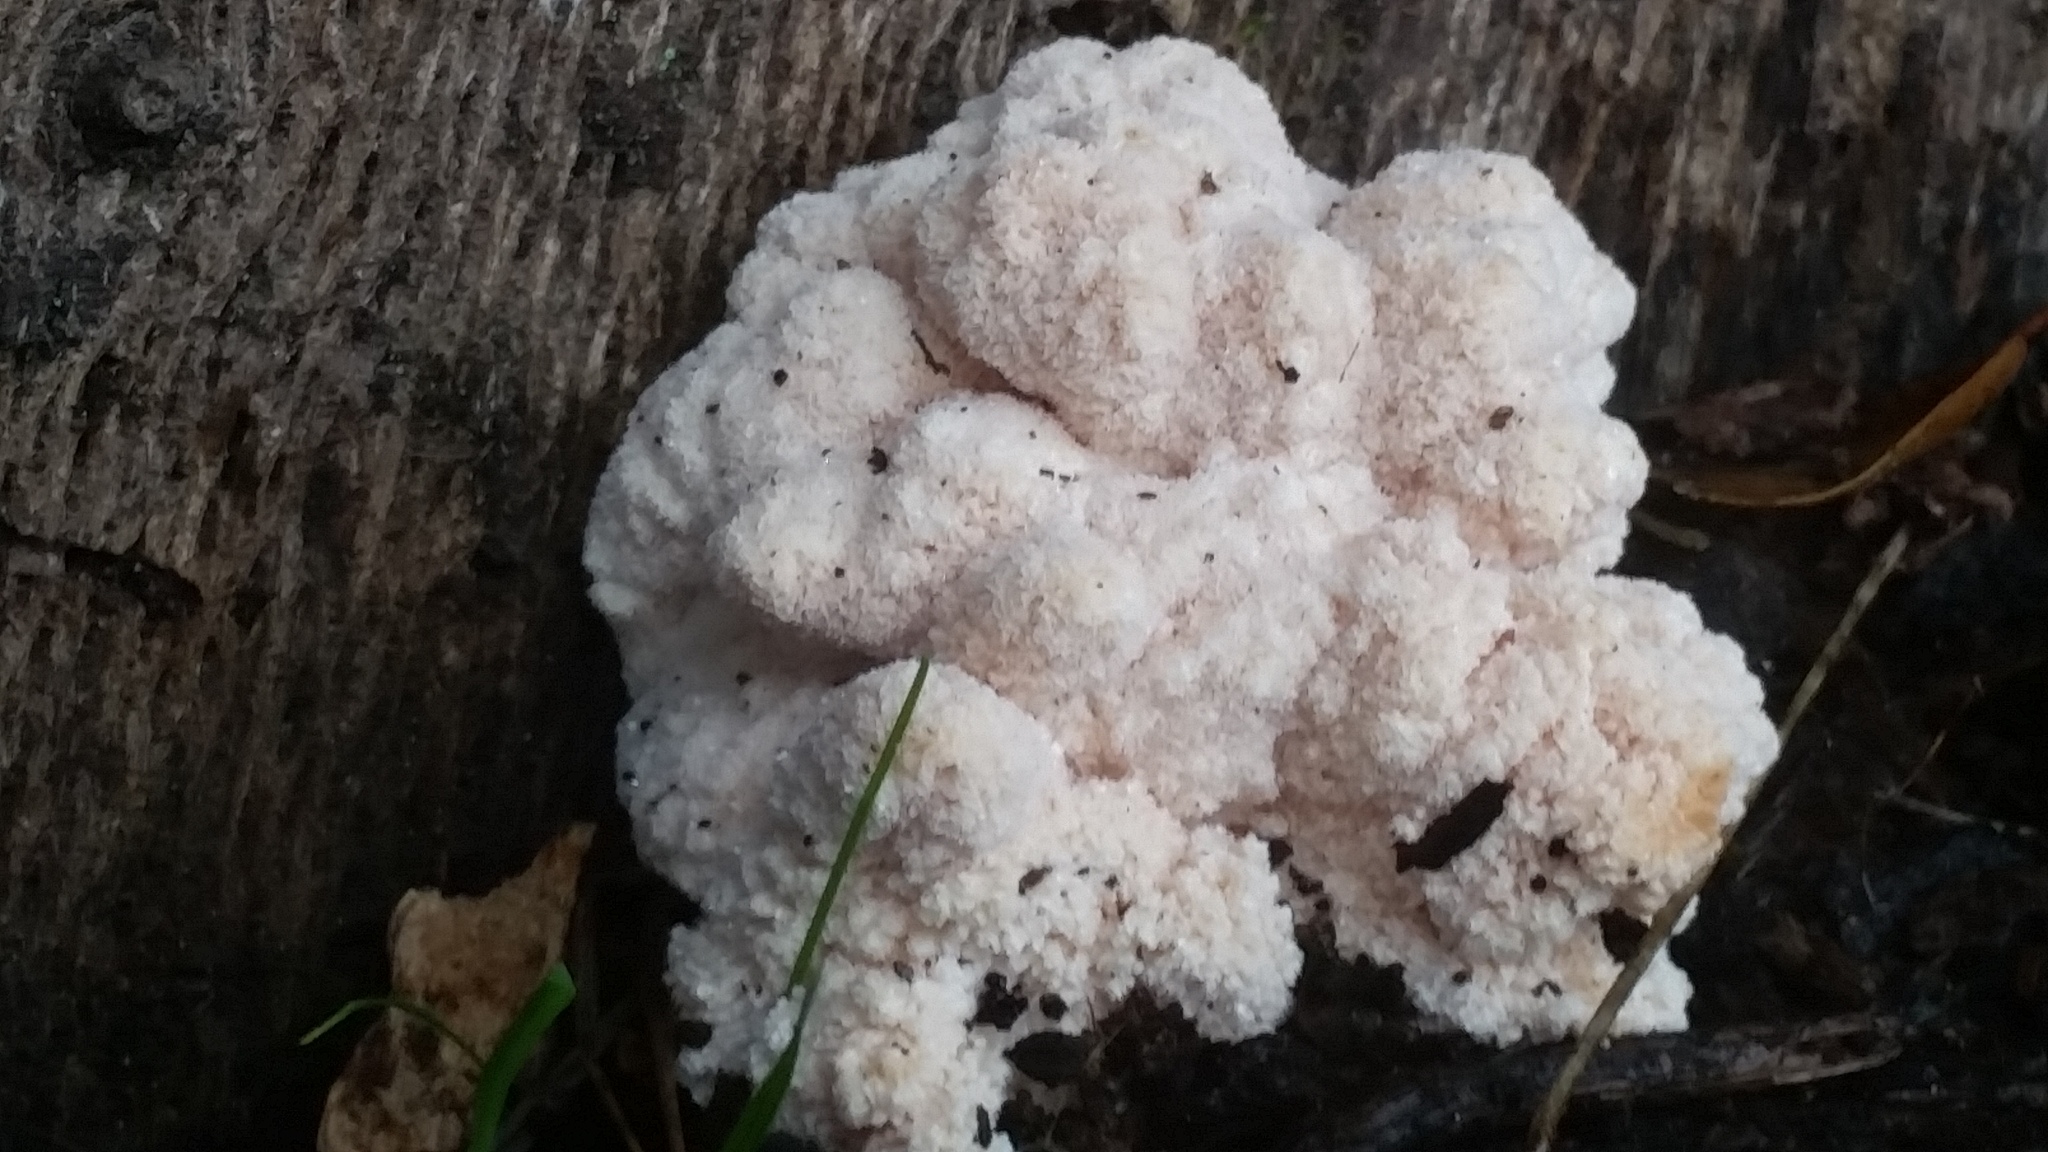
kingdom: Fungi
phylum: Basidiomycota
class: Agaricomycetes
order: Russulales
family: Hericiaceae
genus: Hericium
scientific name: Hericium coralloides
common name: Coral tooth
